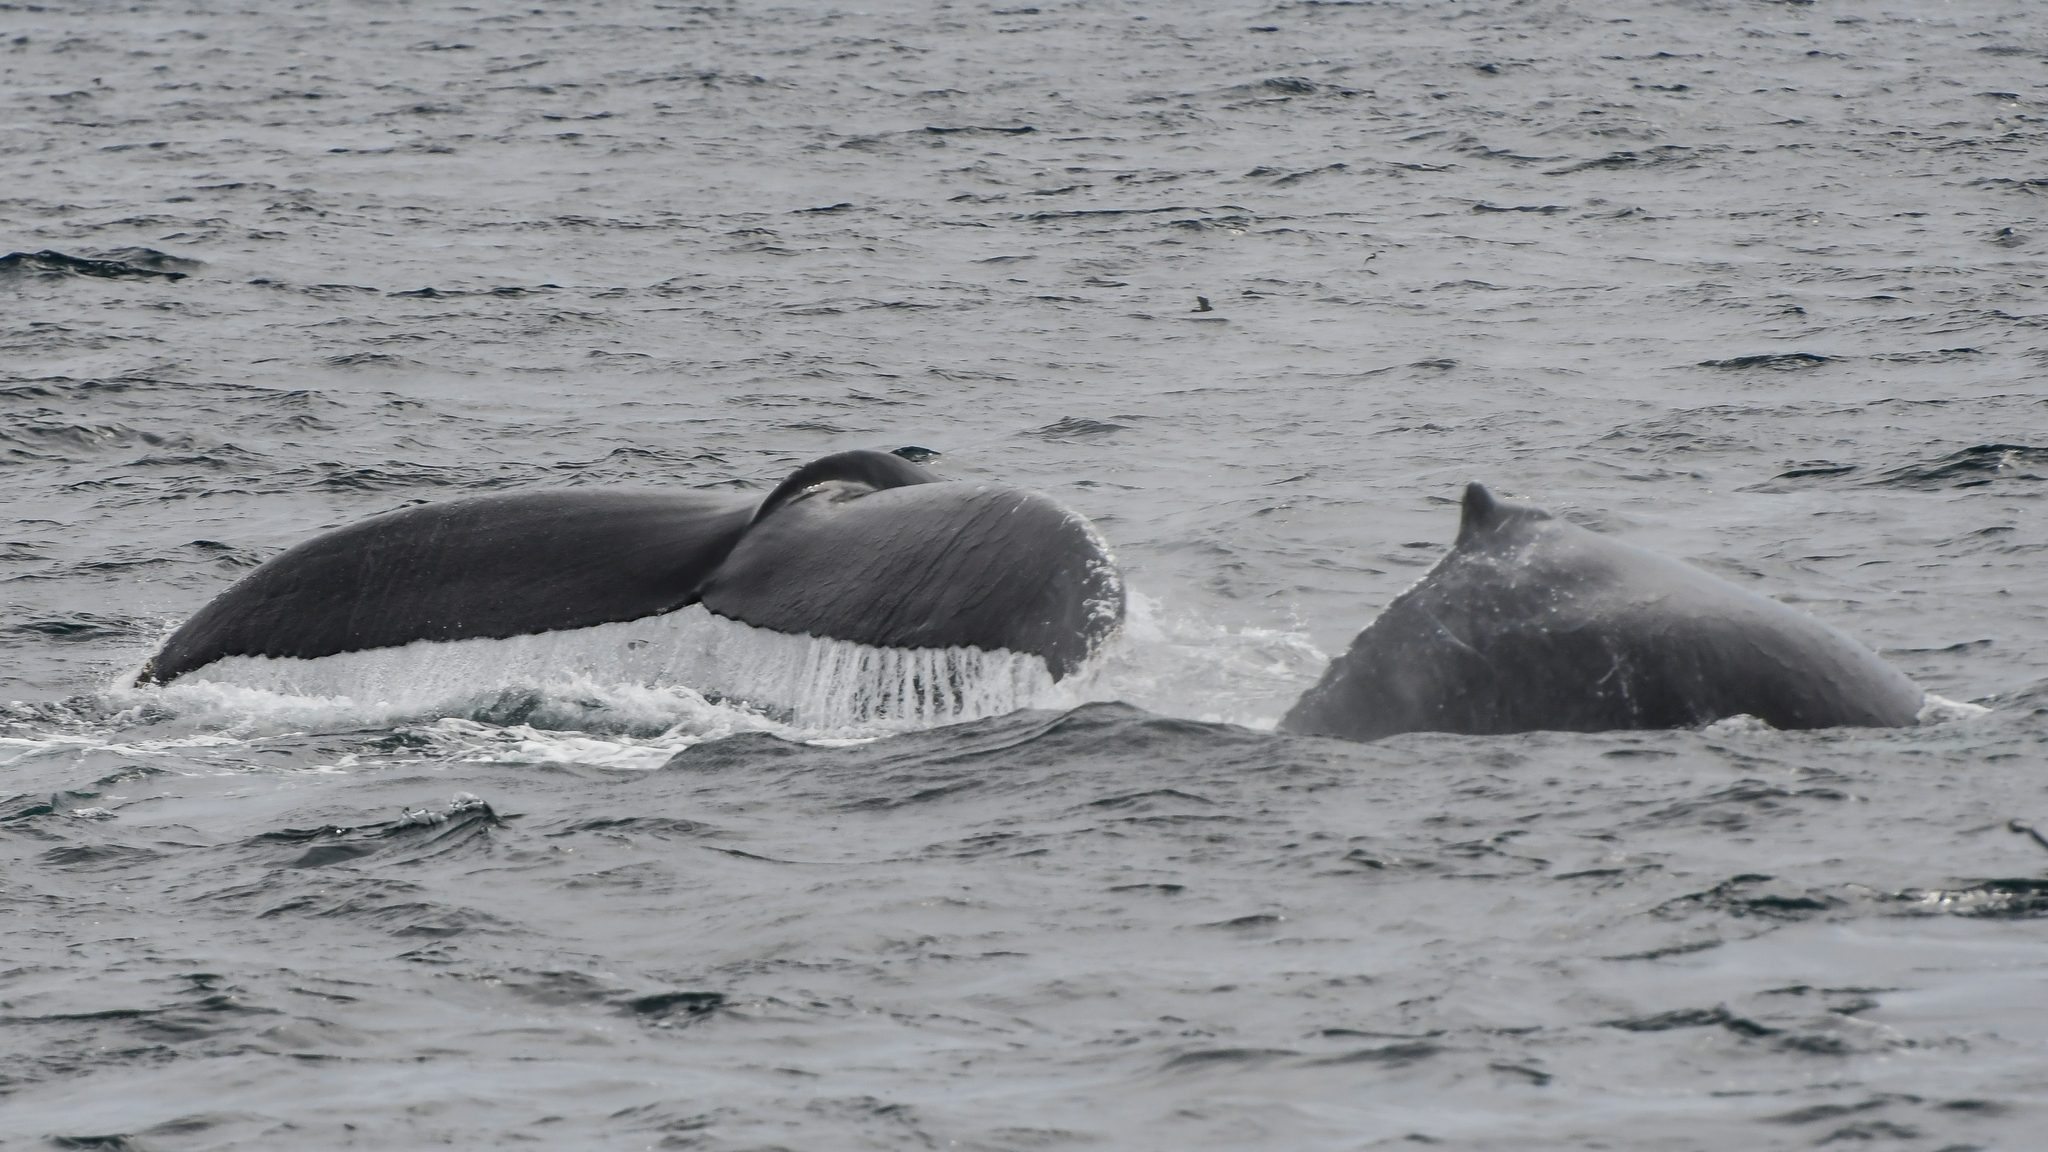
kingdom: Animalia
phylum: Chordata
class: Mammalia
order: Cetacea
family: Balaenopteridae
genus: Megaptera
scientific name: Megaptera novaeangliae
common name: Humpback whale
